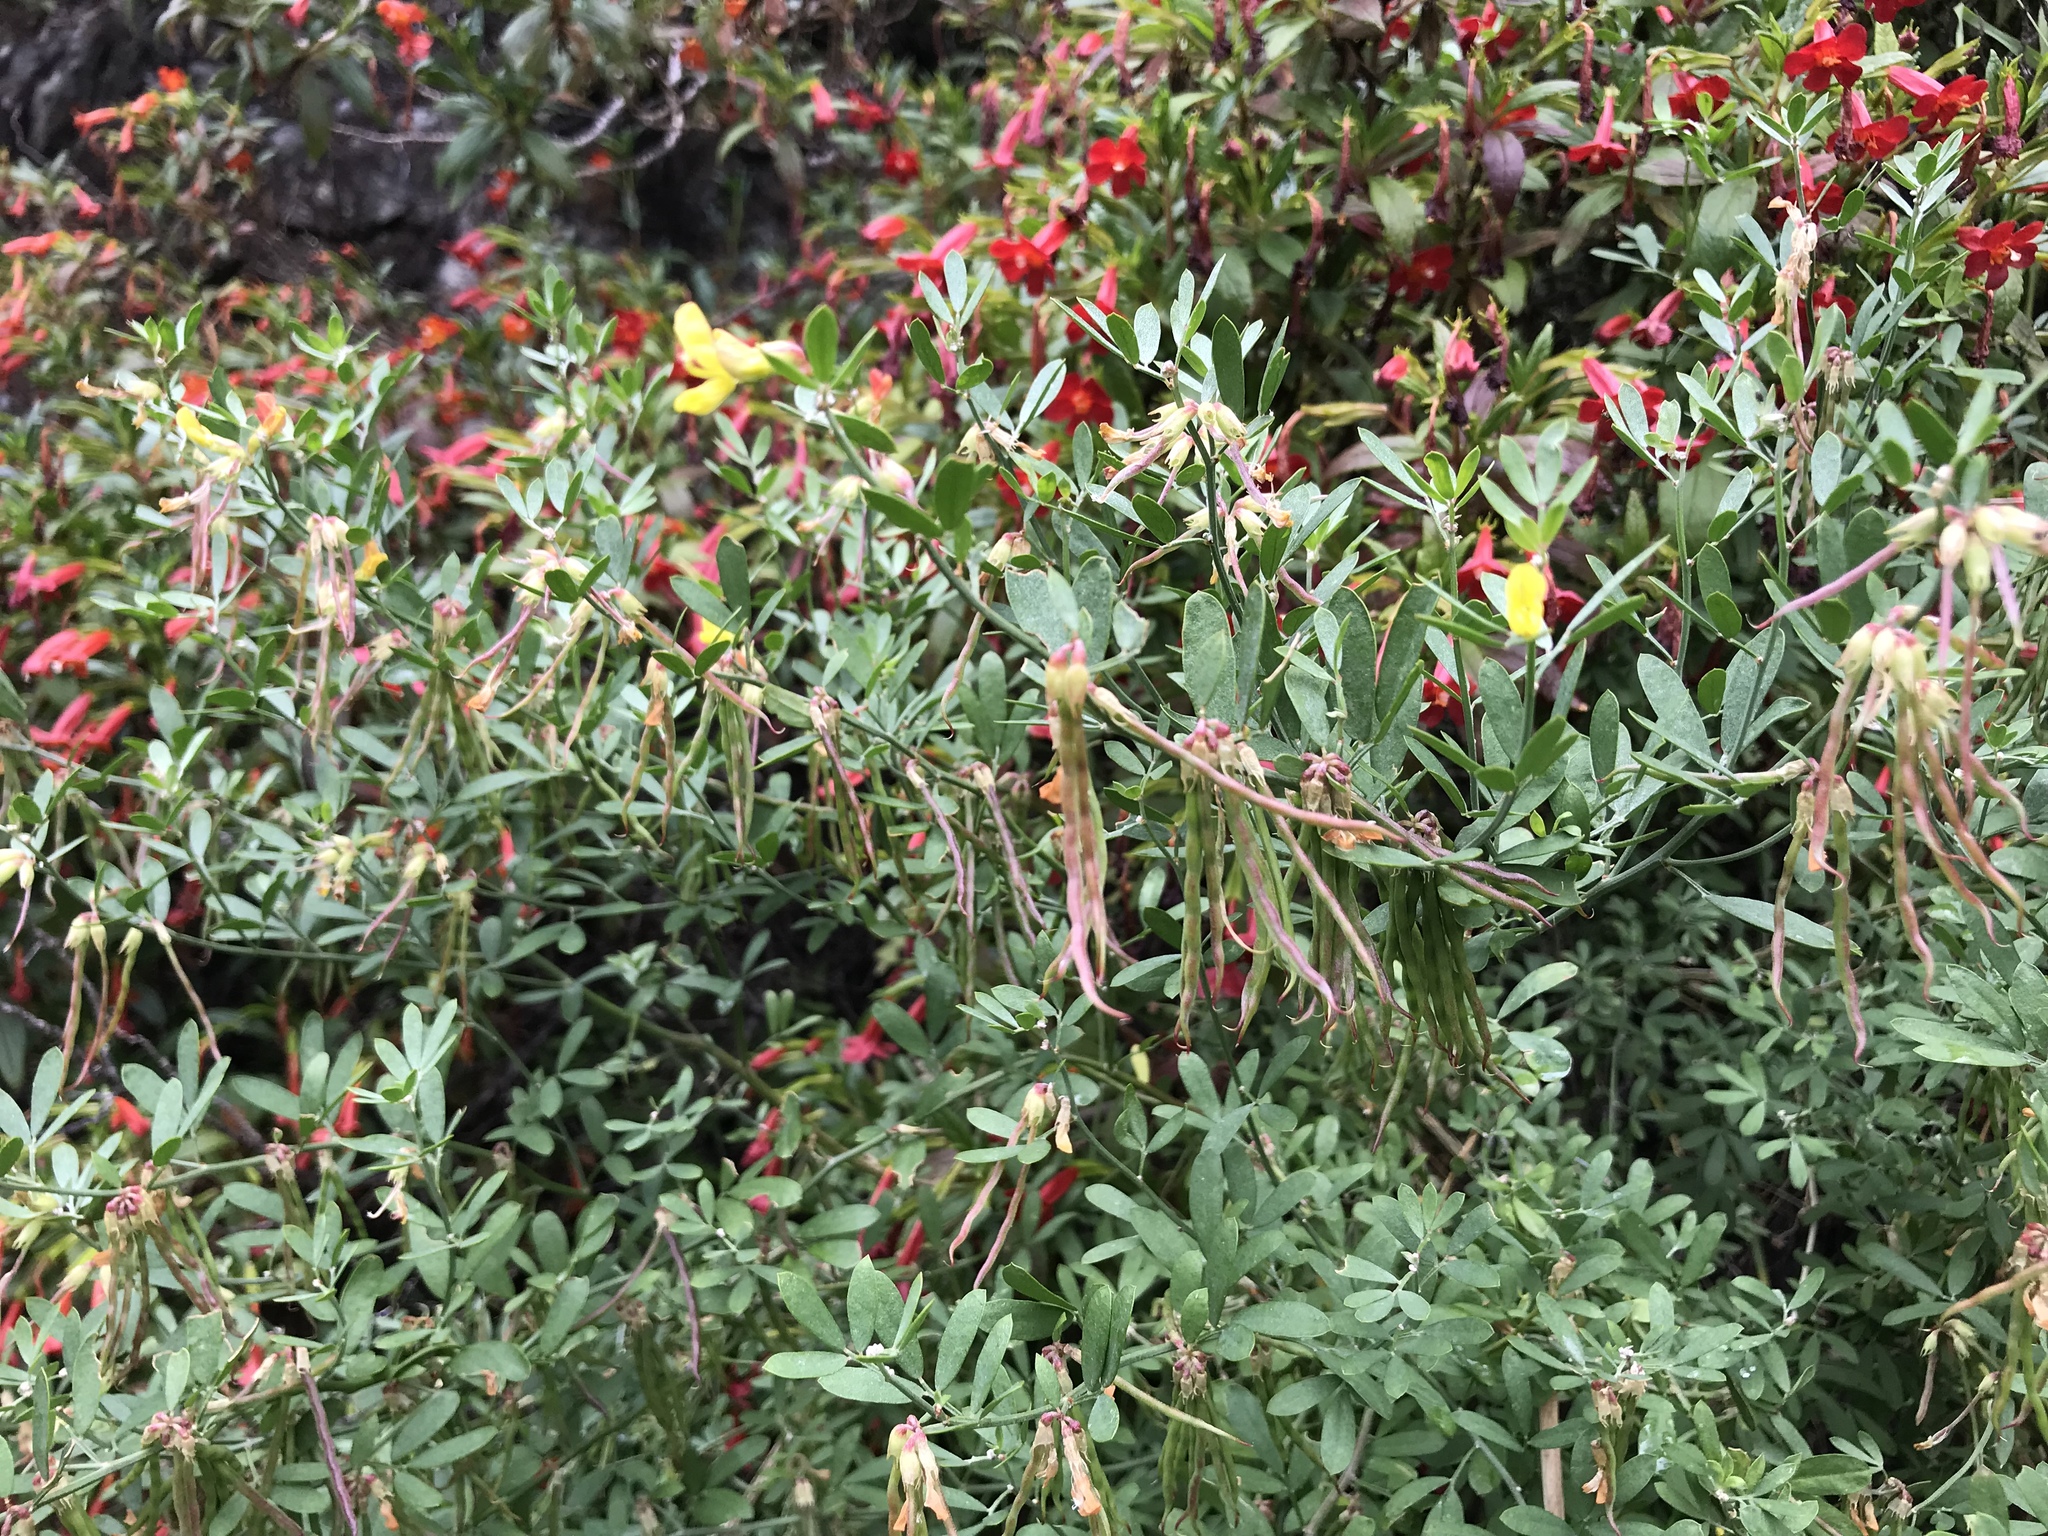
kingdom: Plantae
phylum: Tracheophyta
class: Magnoliopsida
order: Fabales
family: Fabaceae
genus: Acmispon
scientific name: Acmispon dendroideus
